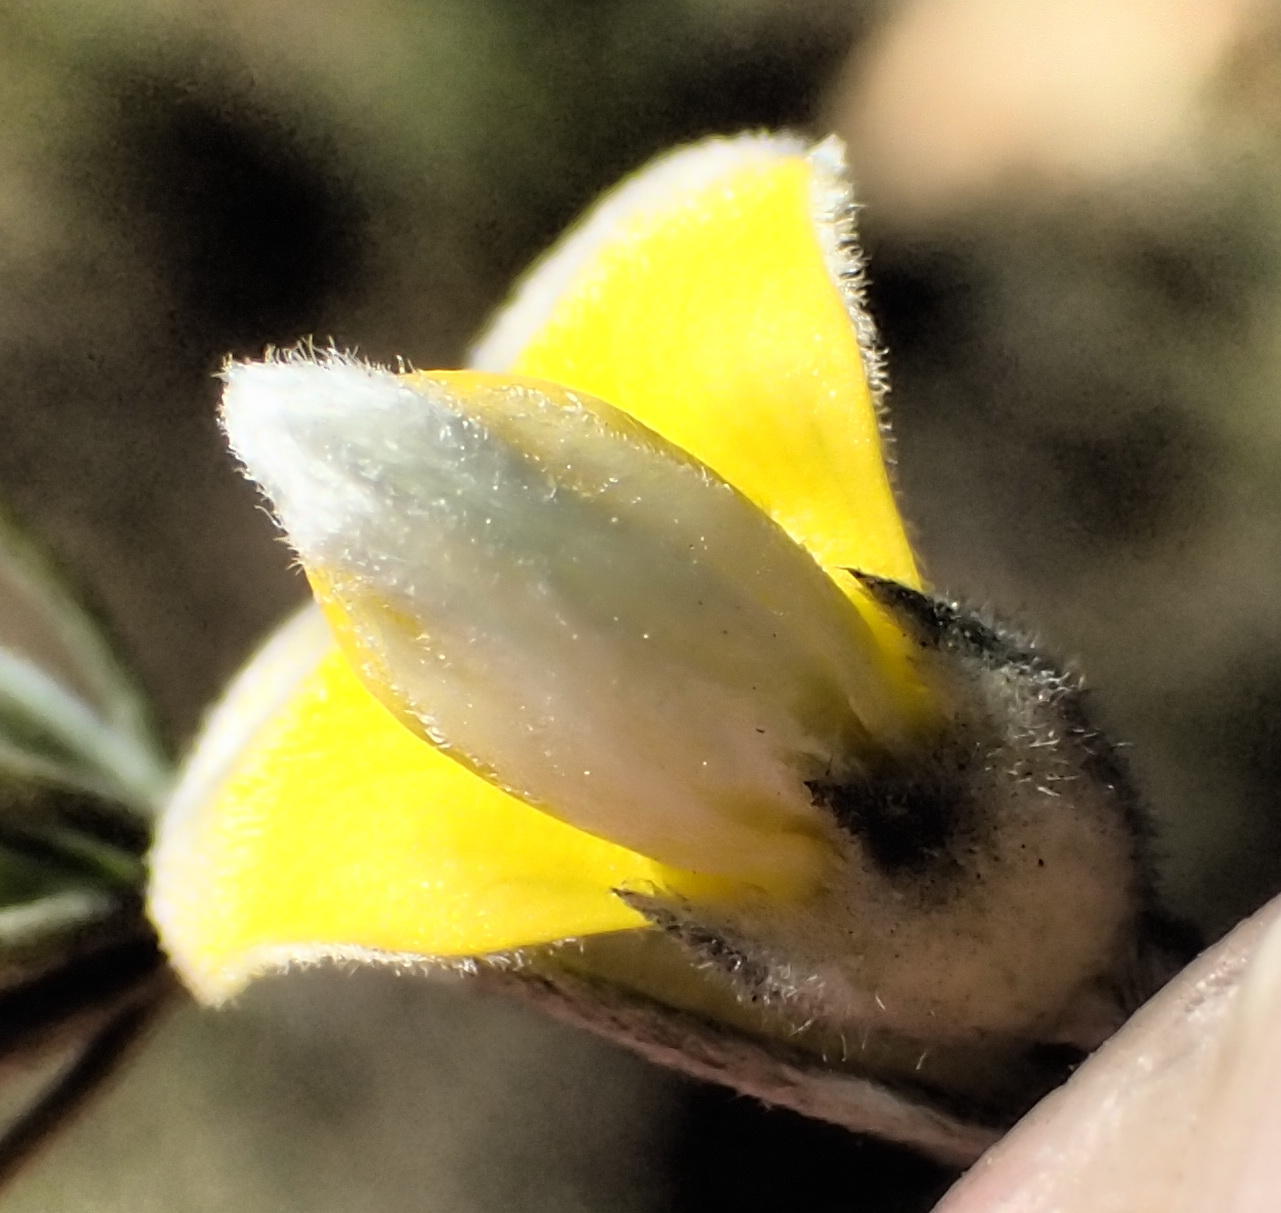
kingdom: Plantae
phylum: Tracheophyta
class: Magnoliopsida
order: Fabales
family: Fabaceae
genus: Aspalathus
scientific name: Aspalathus kougaensis
